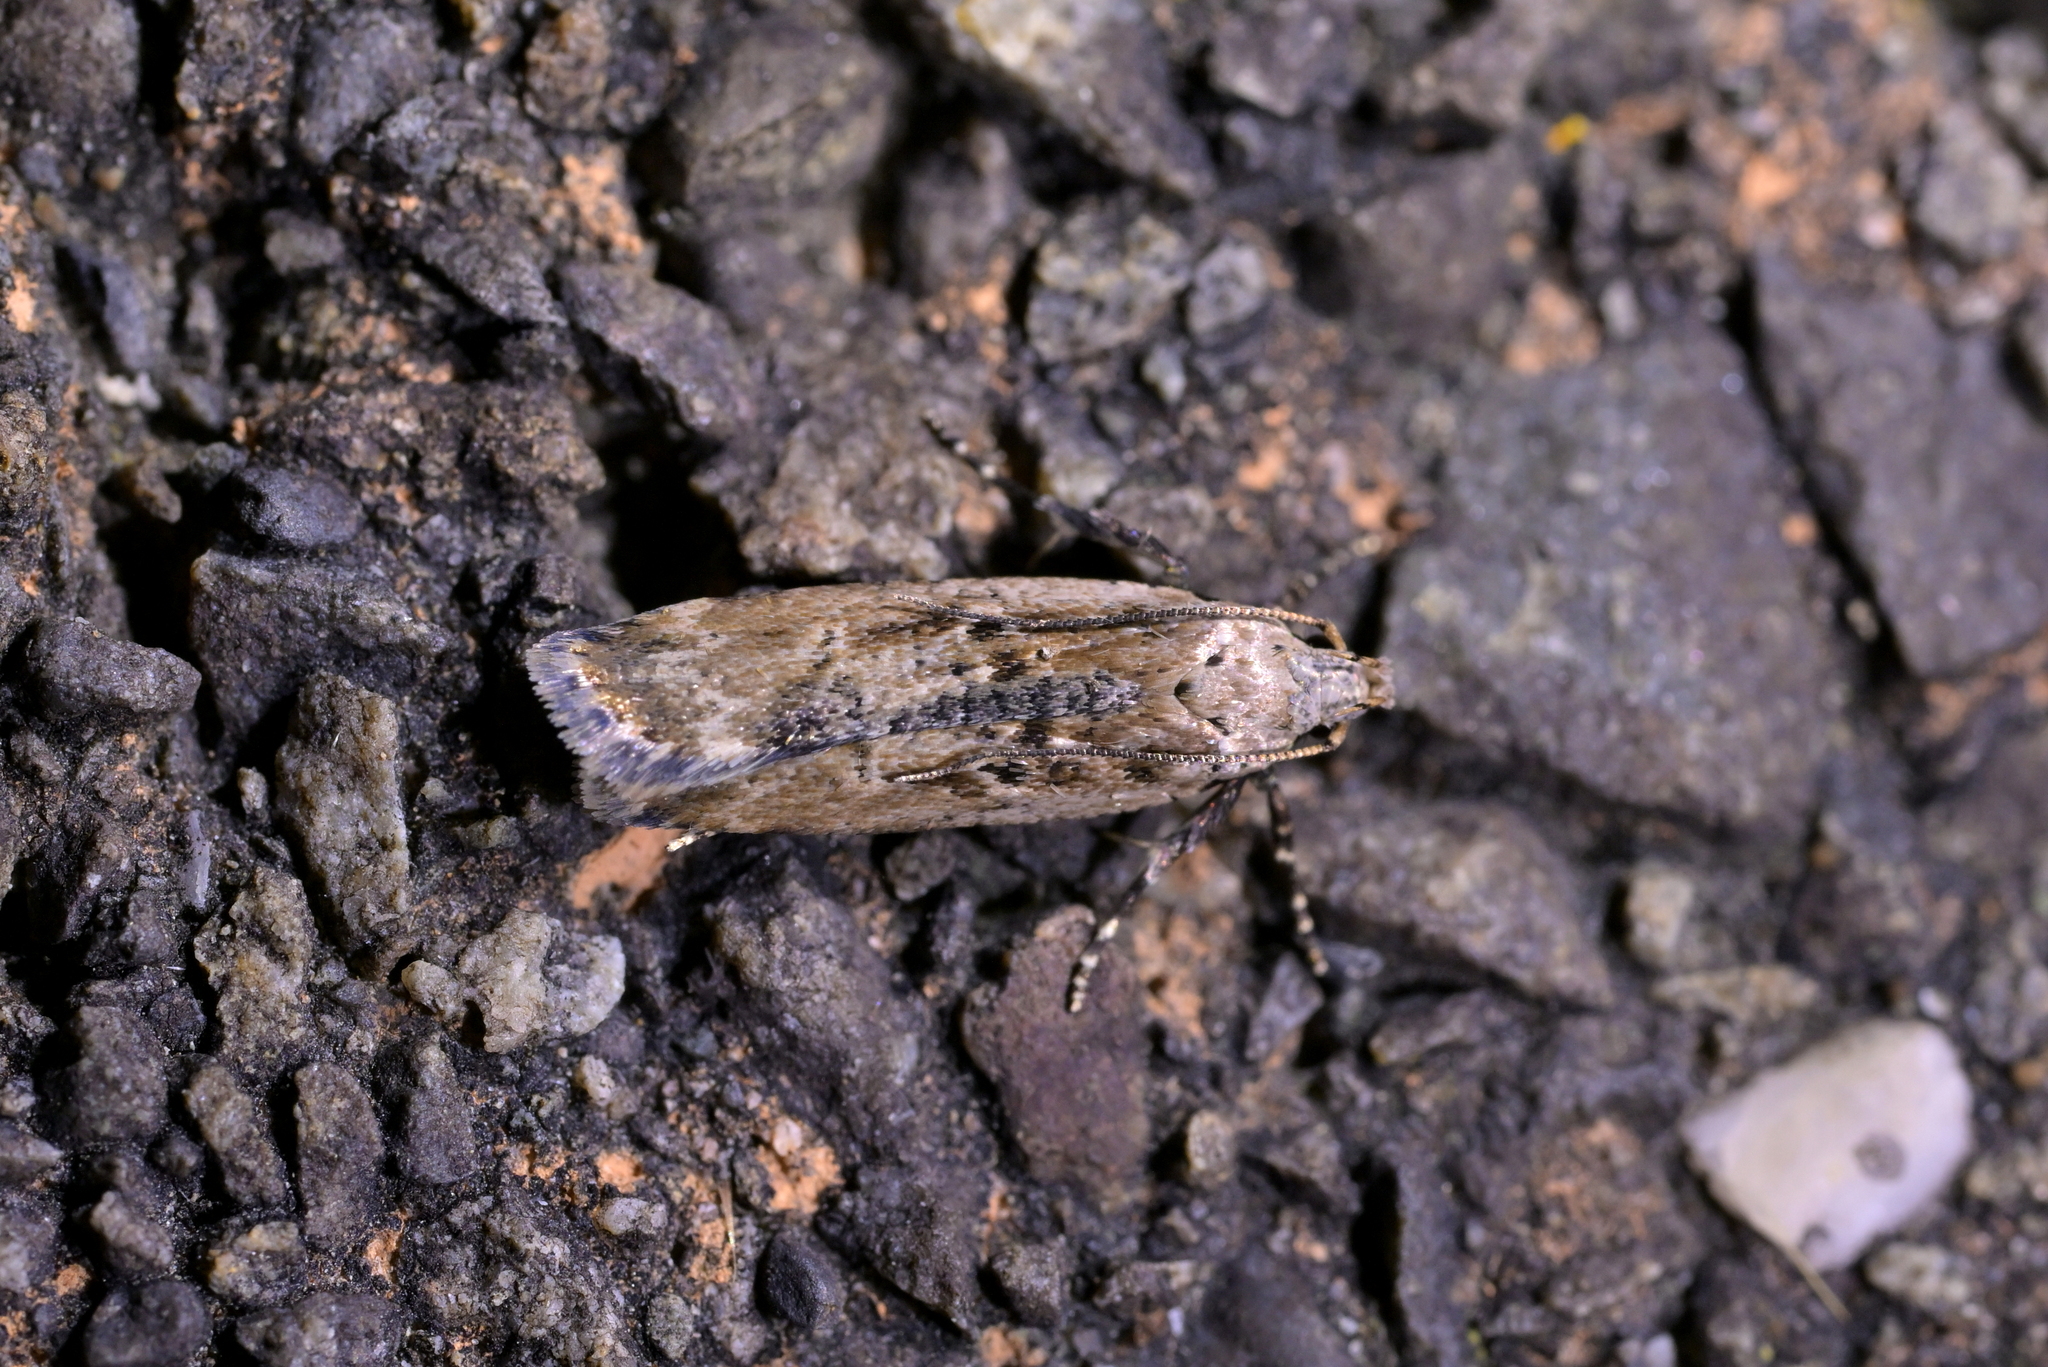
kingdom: Animalia
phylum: Arthropoda
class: Insecta
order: Lepidoptera
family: Gelechiidae
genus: Anisoplaca
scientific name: Anisoplaca achyrota
